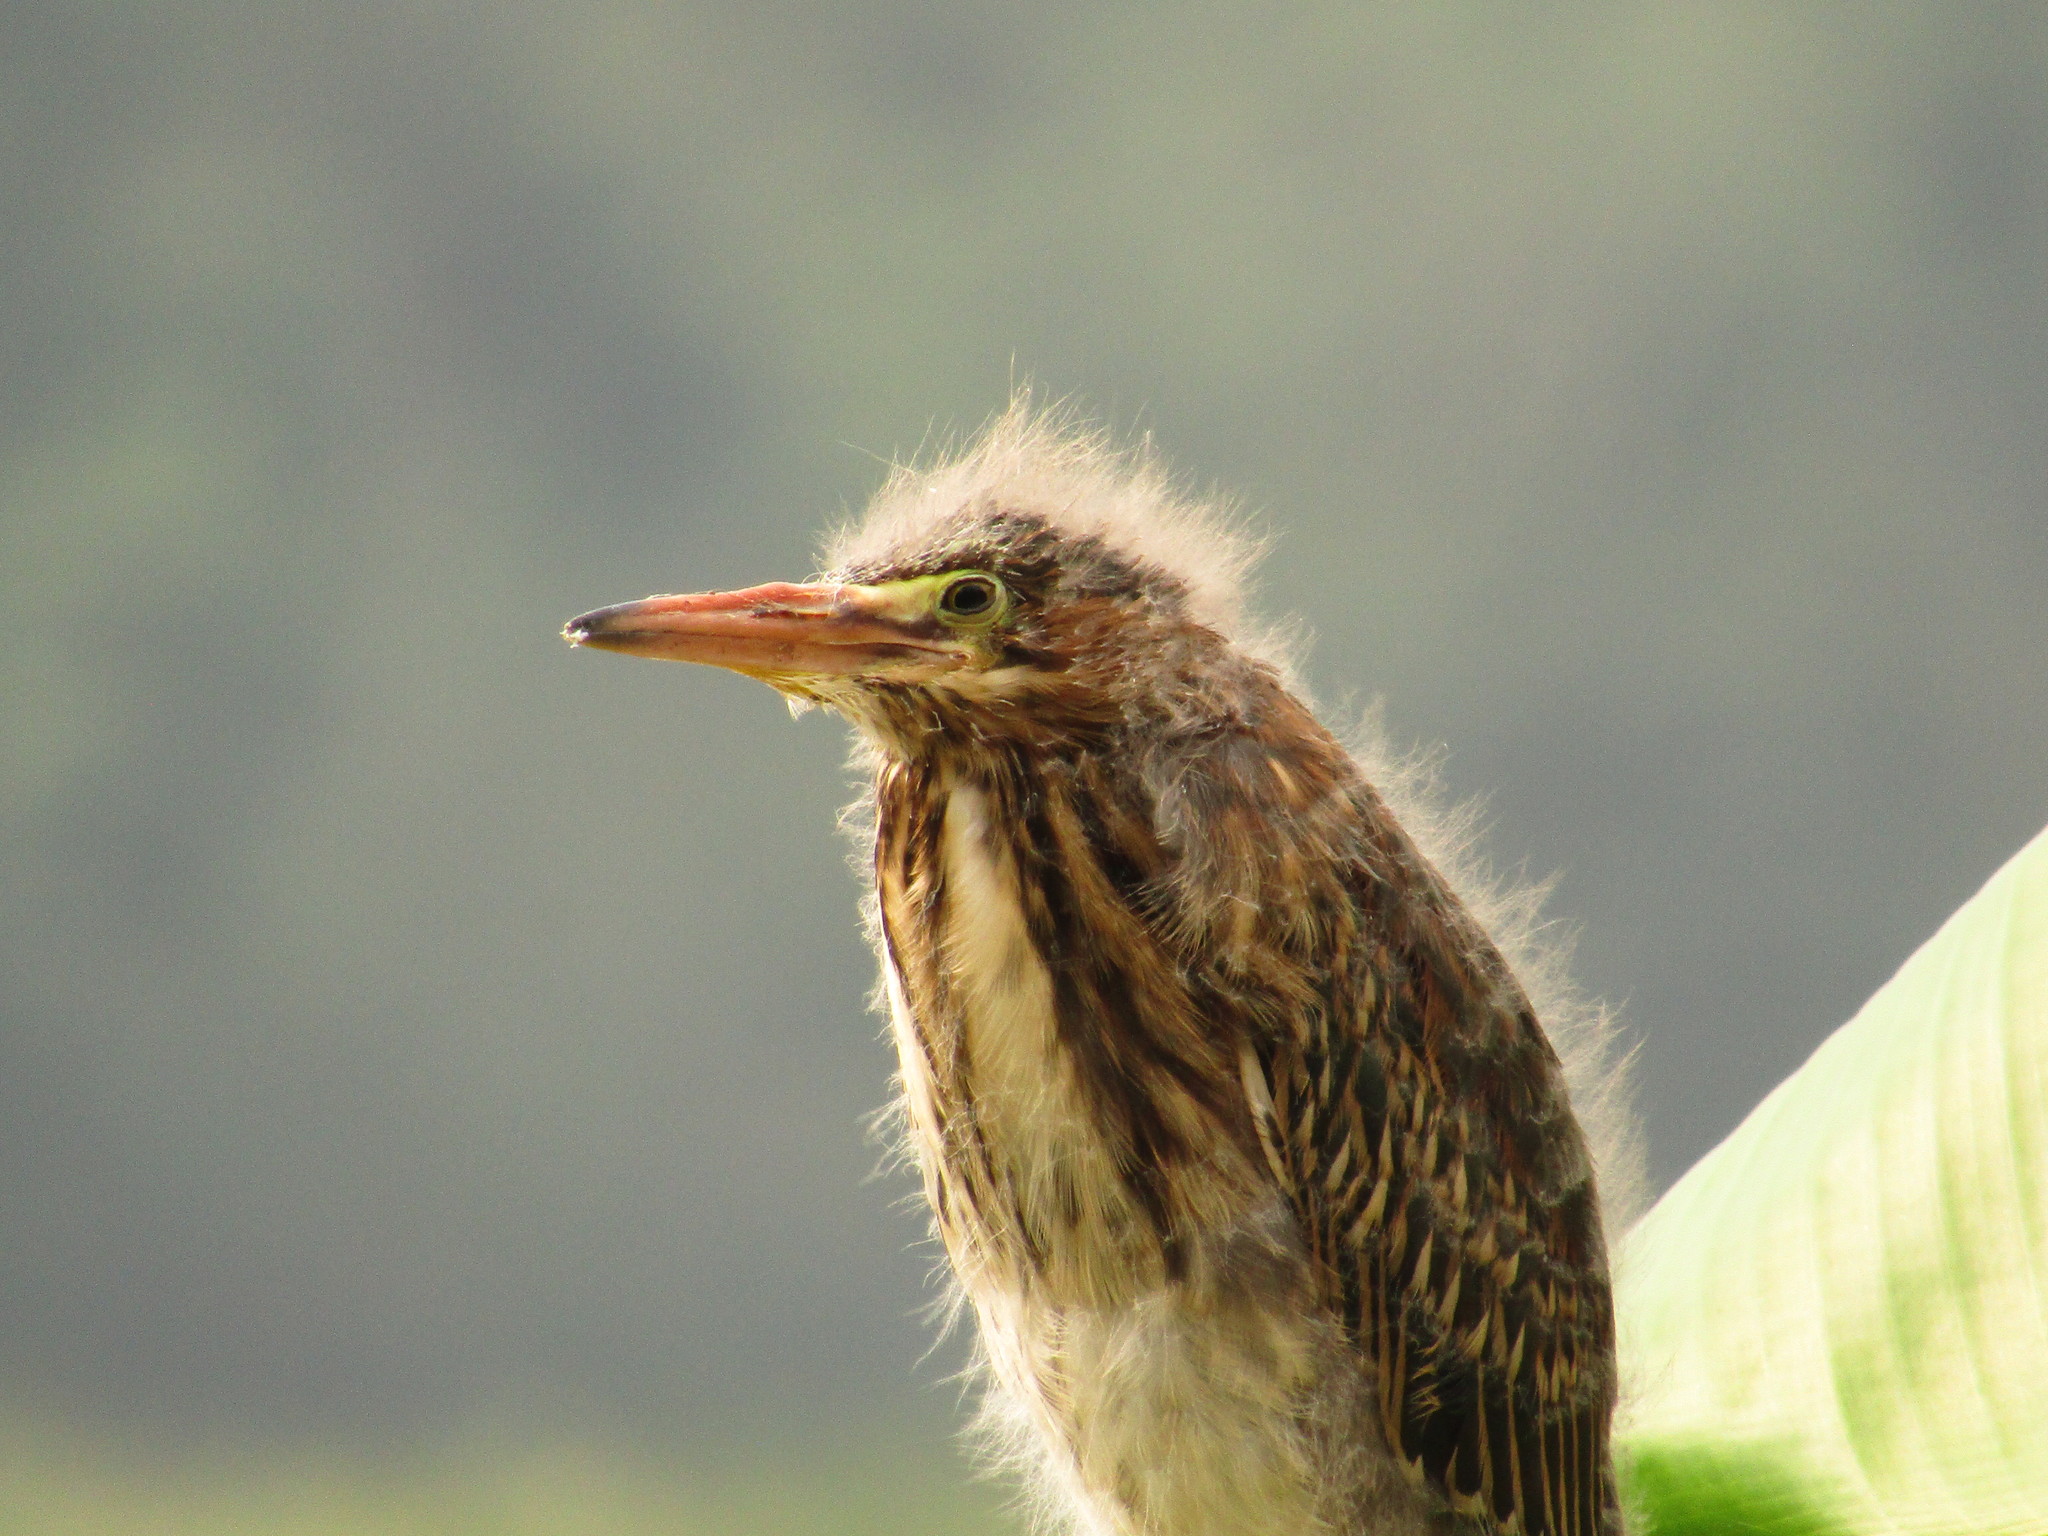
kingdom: Animalia
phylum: Chordata
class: Aves
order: Pelecaniformes
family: Ardeidae
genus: Butorides
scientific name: Butorides virescens
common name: Green heron
